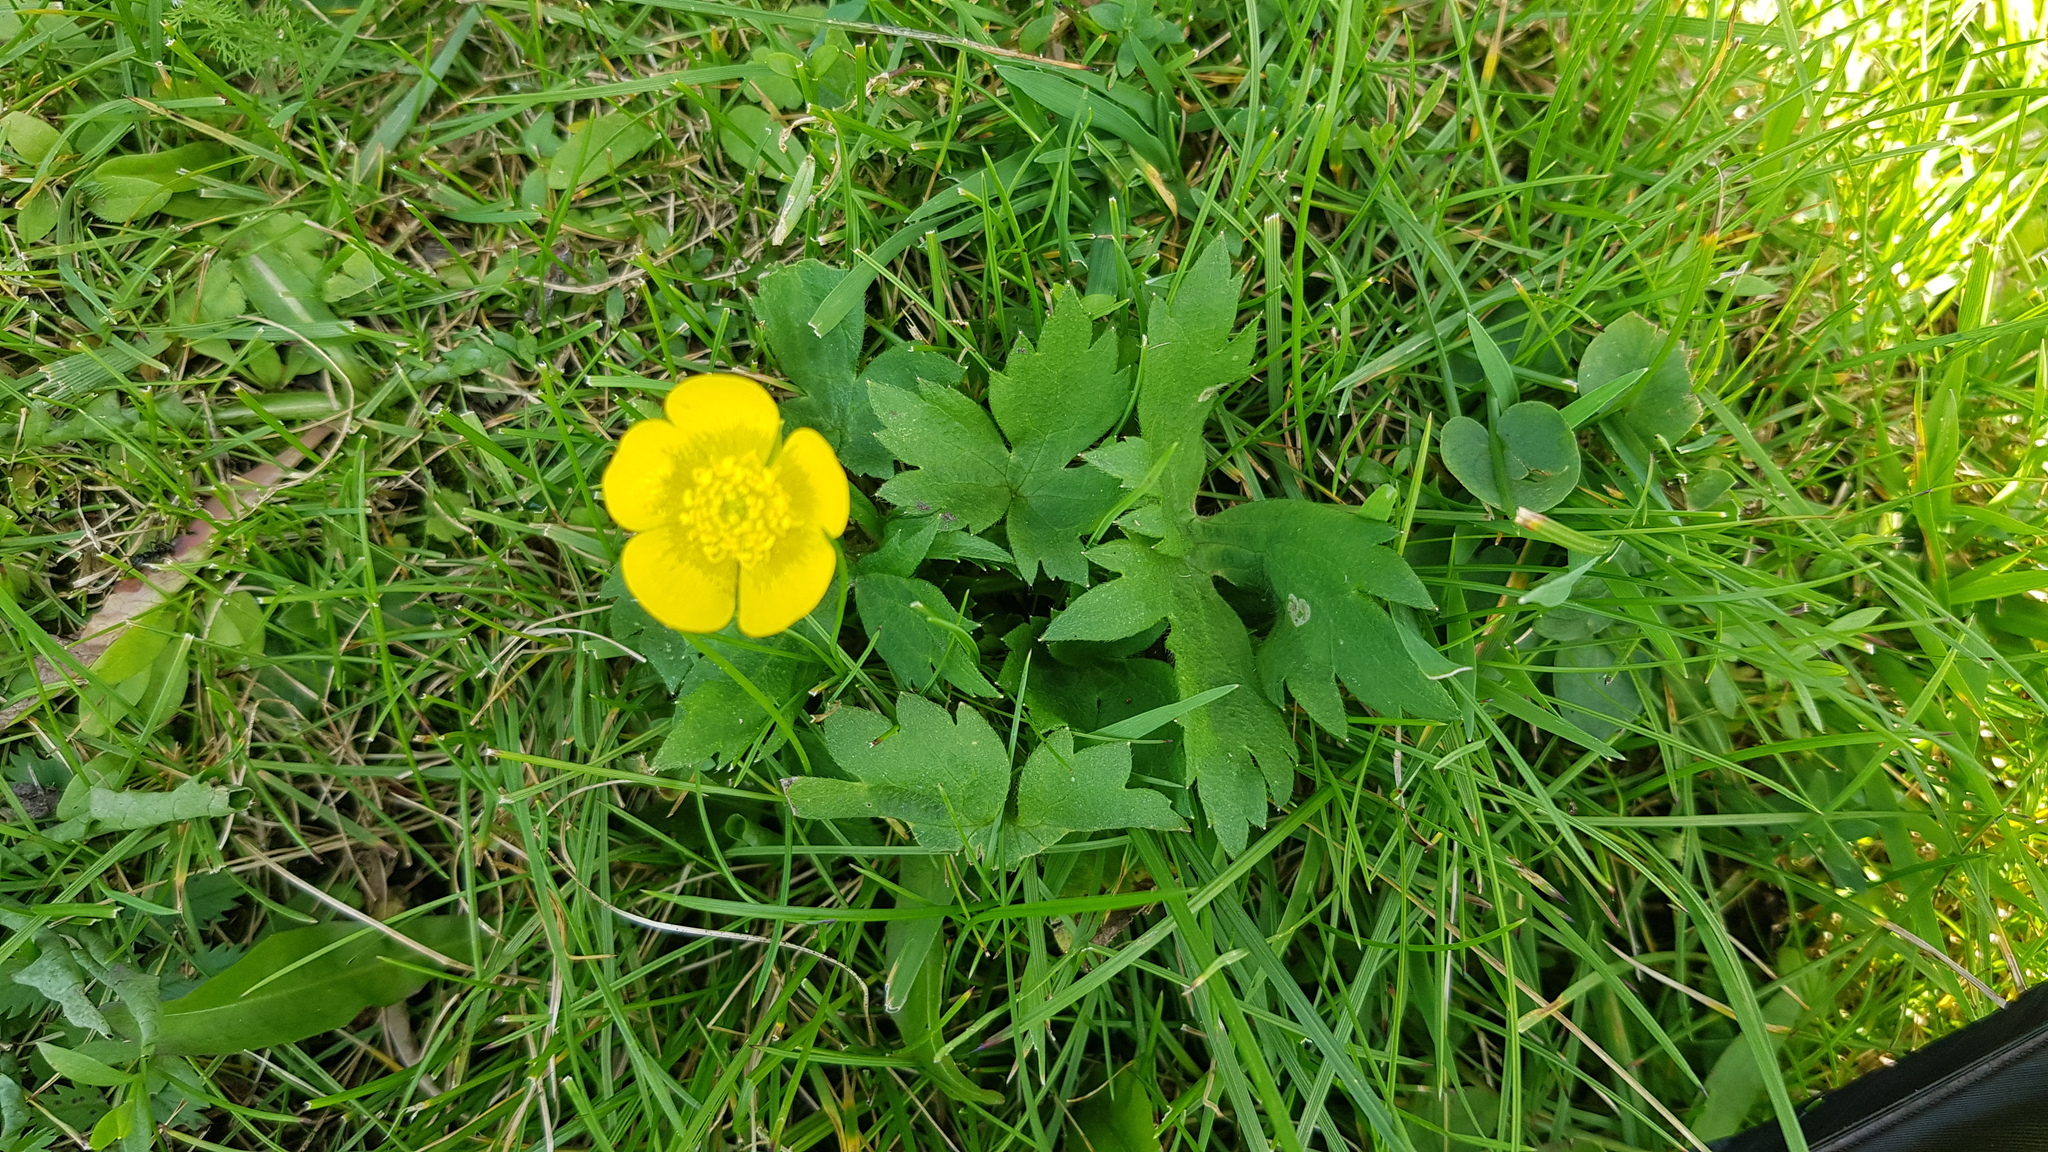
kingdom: Plantae
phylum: Tracheophyta
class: Magnoliopsida
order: Ranunculales
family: Ranunculaceae
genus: Ranunculus
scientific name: Ranunculus repens
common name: Creeping buttercup
